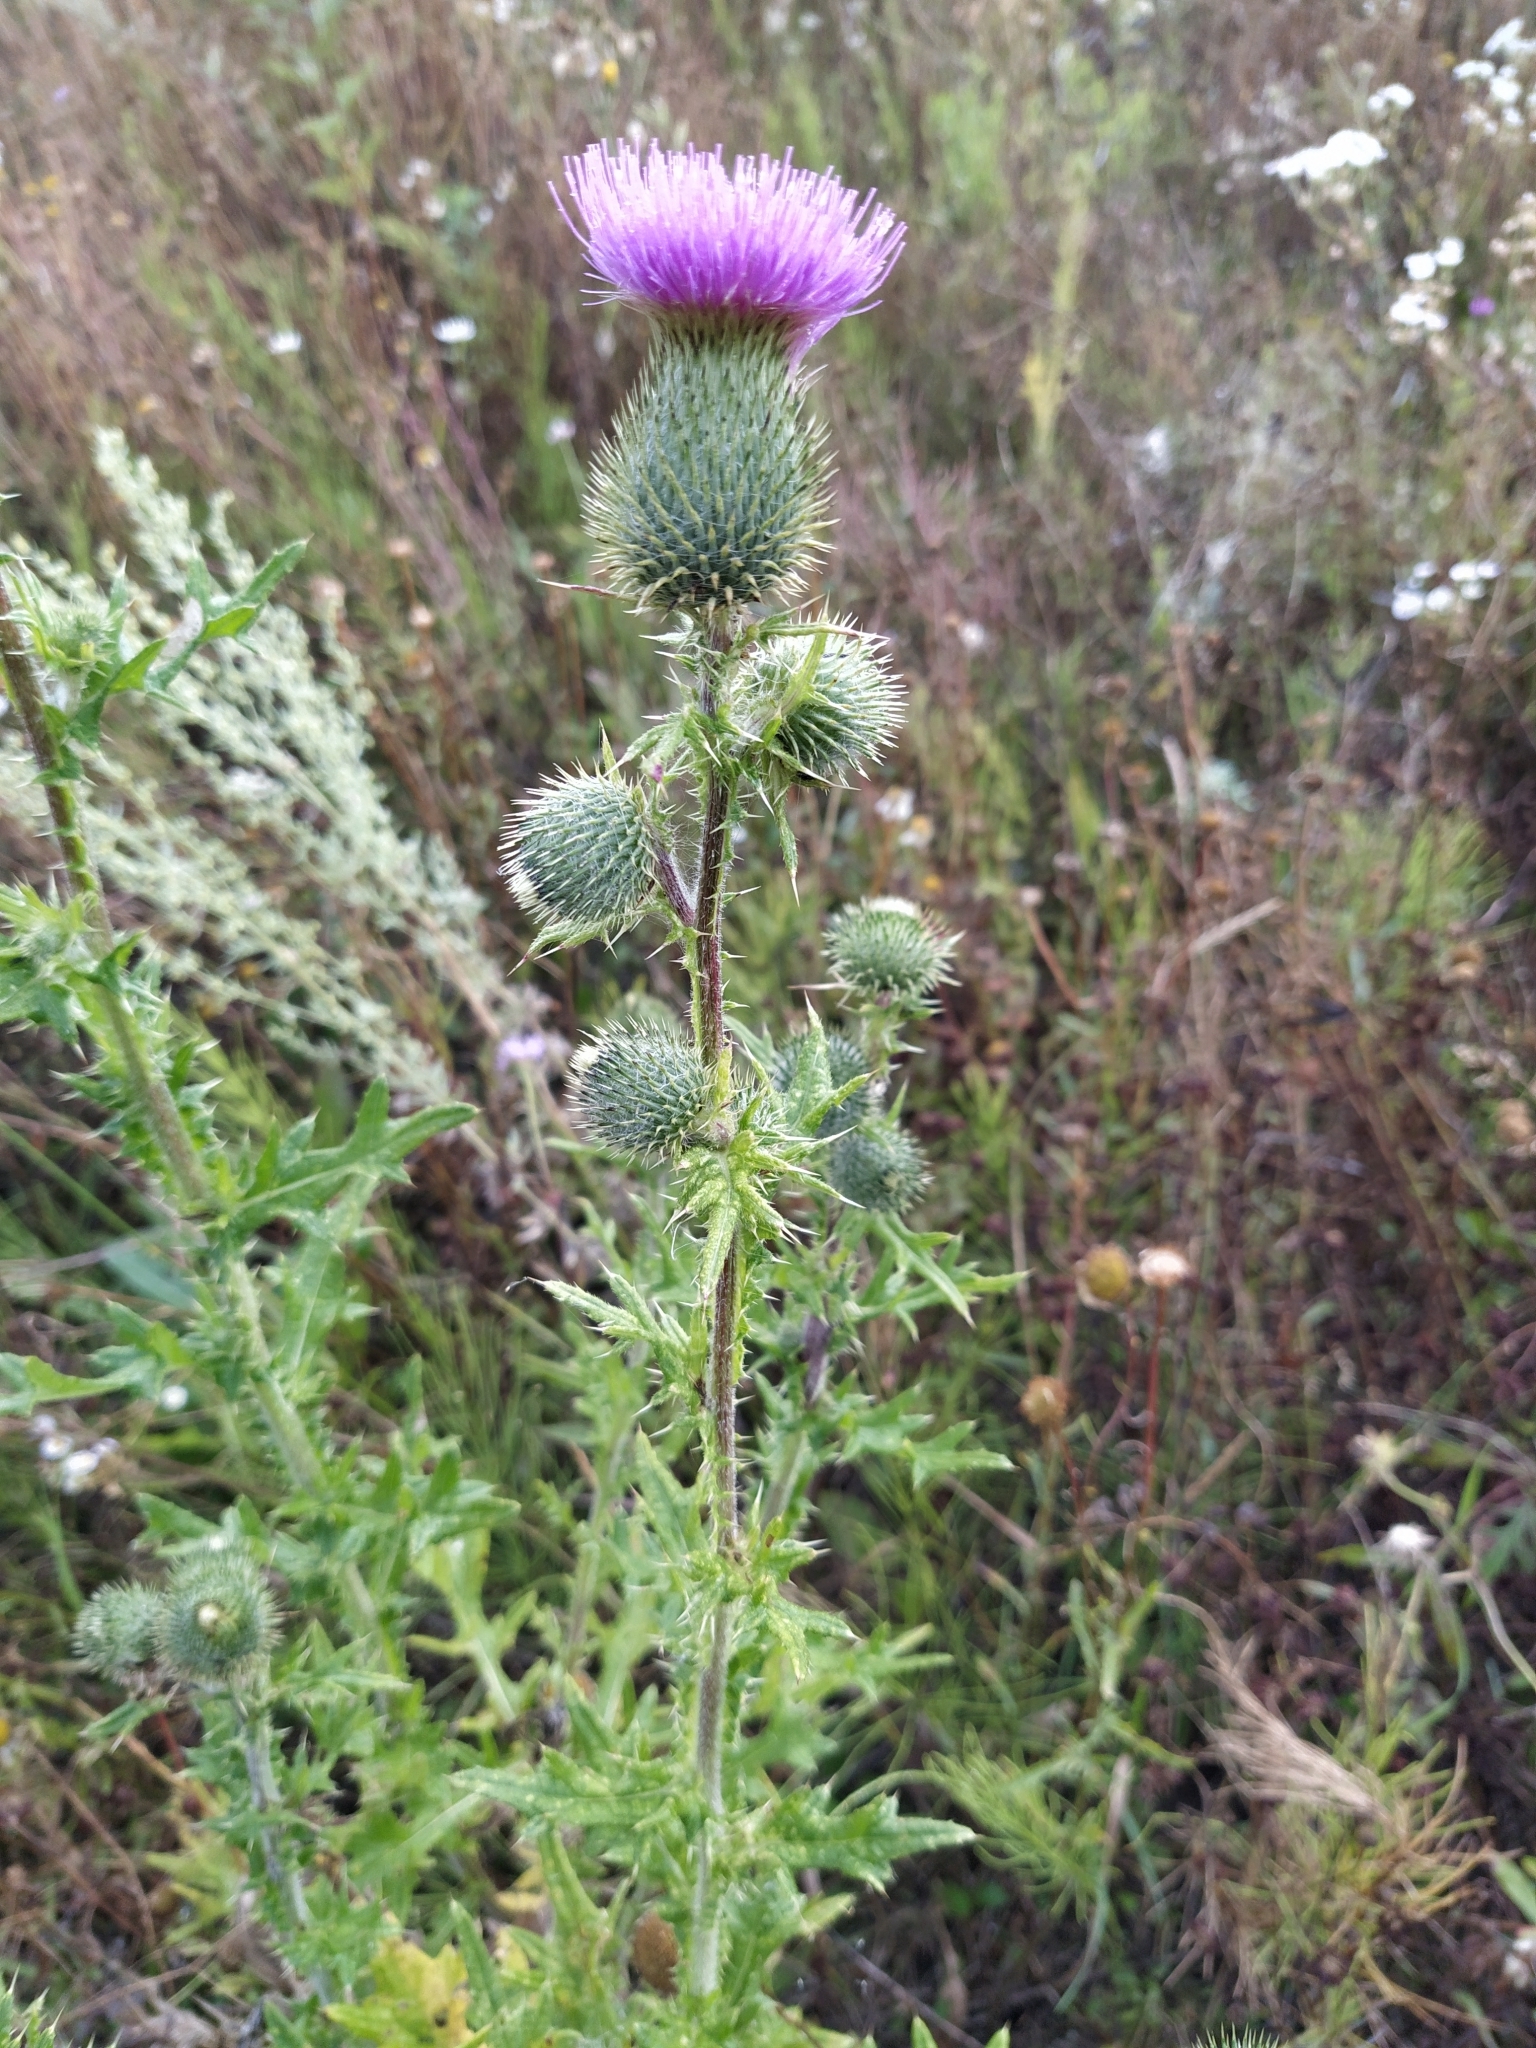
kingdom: Plantae
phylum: Tracheophyta
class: Magnoliopsida
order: Asterales
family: Asteraceae
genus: Cirsium
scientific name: Cirsium vulgare
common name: Bull thistle
